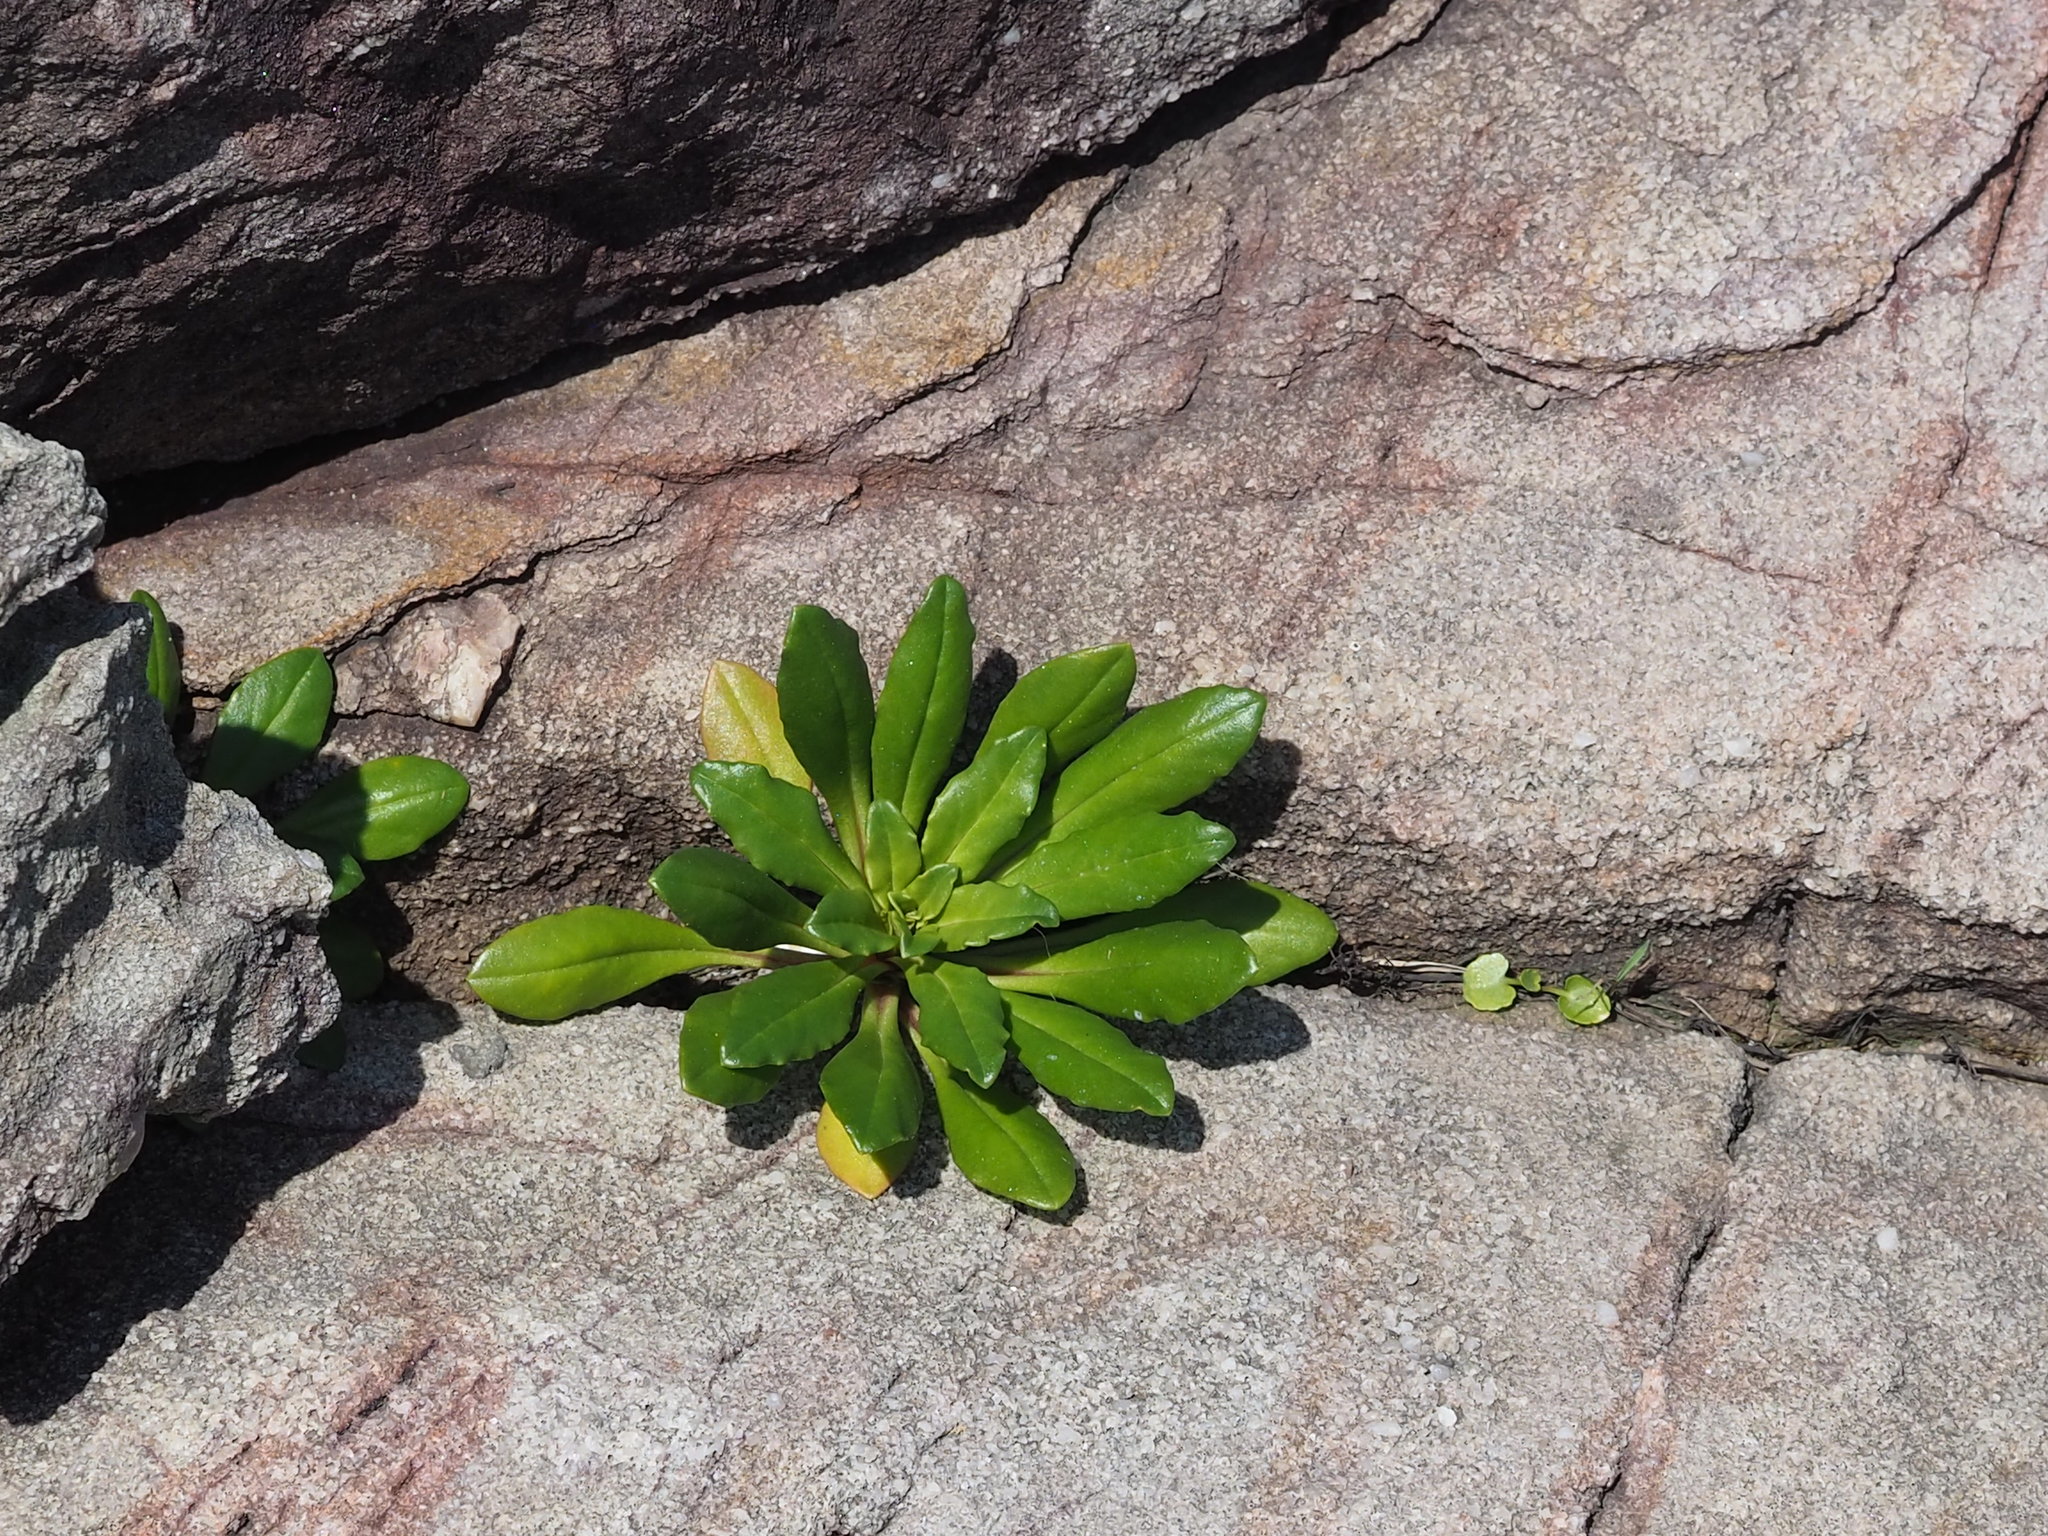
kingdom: Plantae
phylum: Tracheophyta
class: Magnoliopsida
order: Ericales
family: Primulaceae
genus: Lysimachia
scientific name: Lysimachia mauritiana
